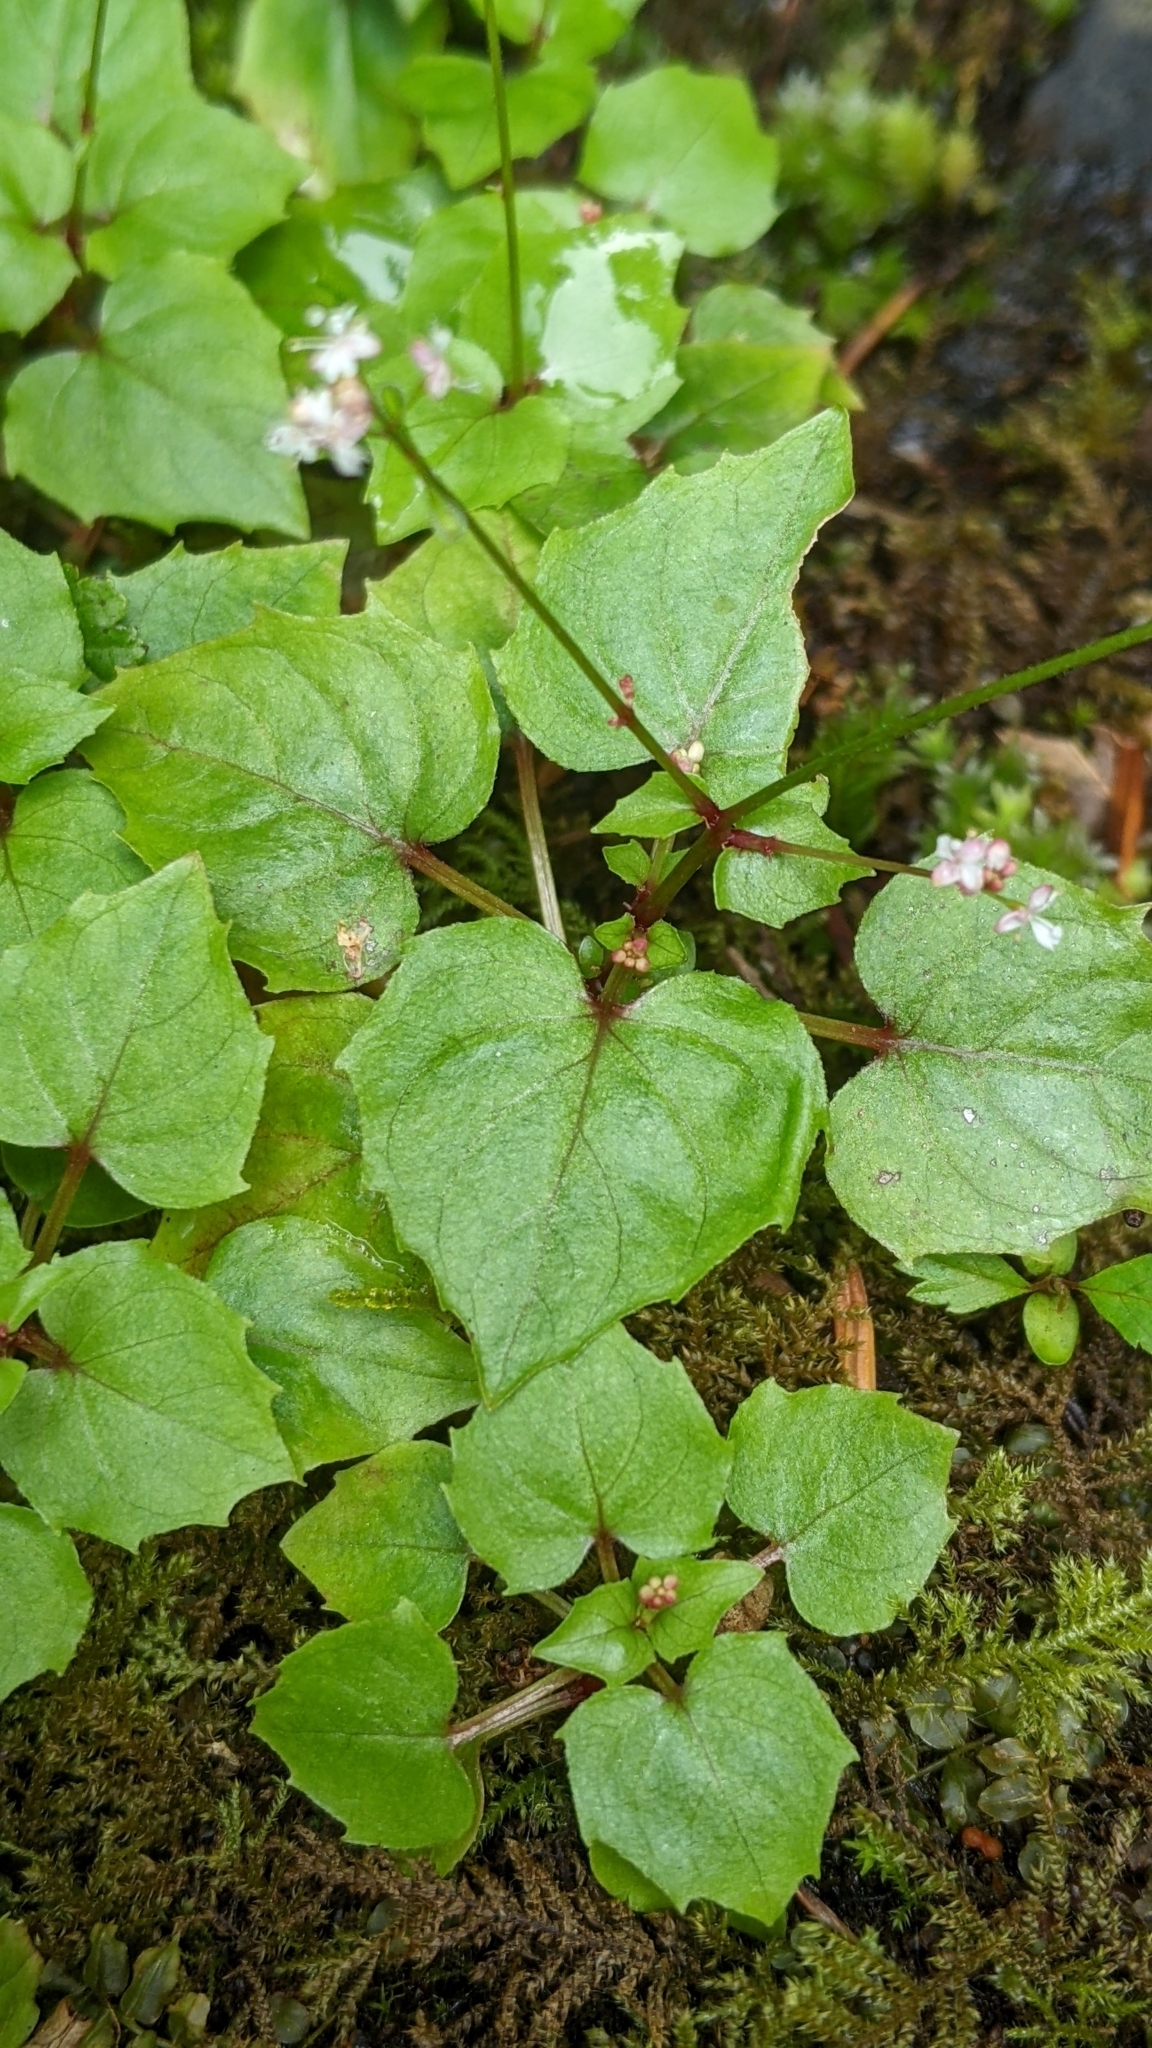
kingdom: Plantae
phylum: Tracheophyta
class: Magnoliopsida
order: Myrtales
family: Onagraceae
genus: Circaea
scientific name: Circaea alpina
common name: Alpine enchanter's-nightshade
